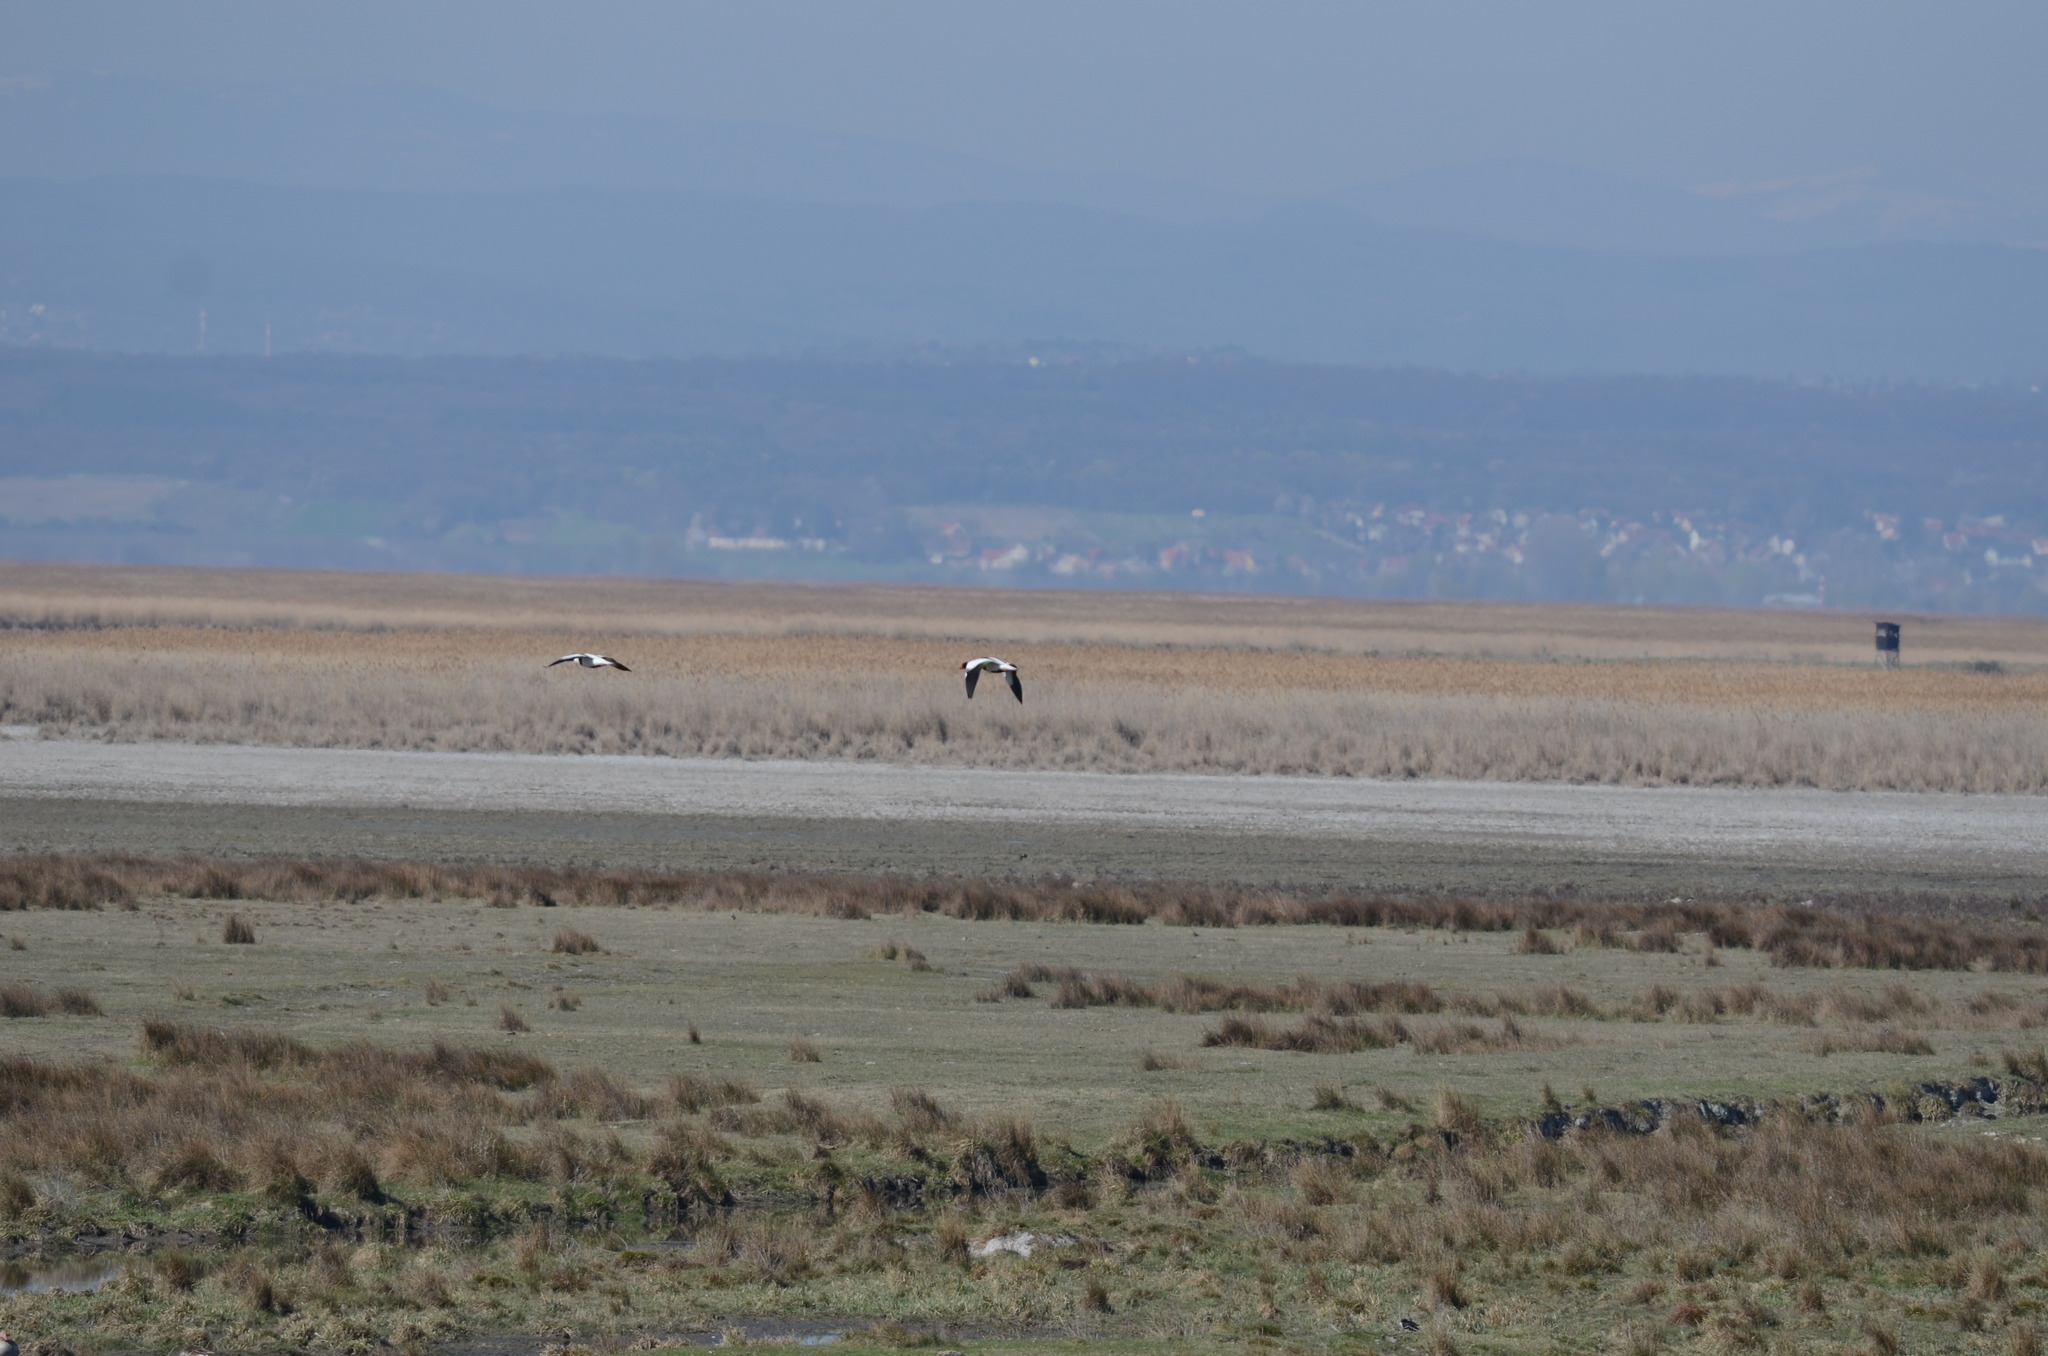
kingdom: Animalia
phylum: Chordata
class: Aves
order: Anseriformes
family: Anatidae
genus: Tadorna
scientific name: Tadorna tadorna
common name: Common shelduck
